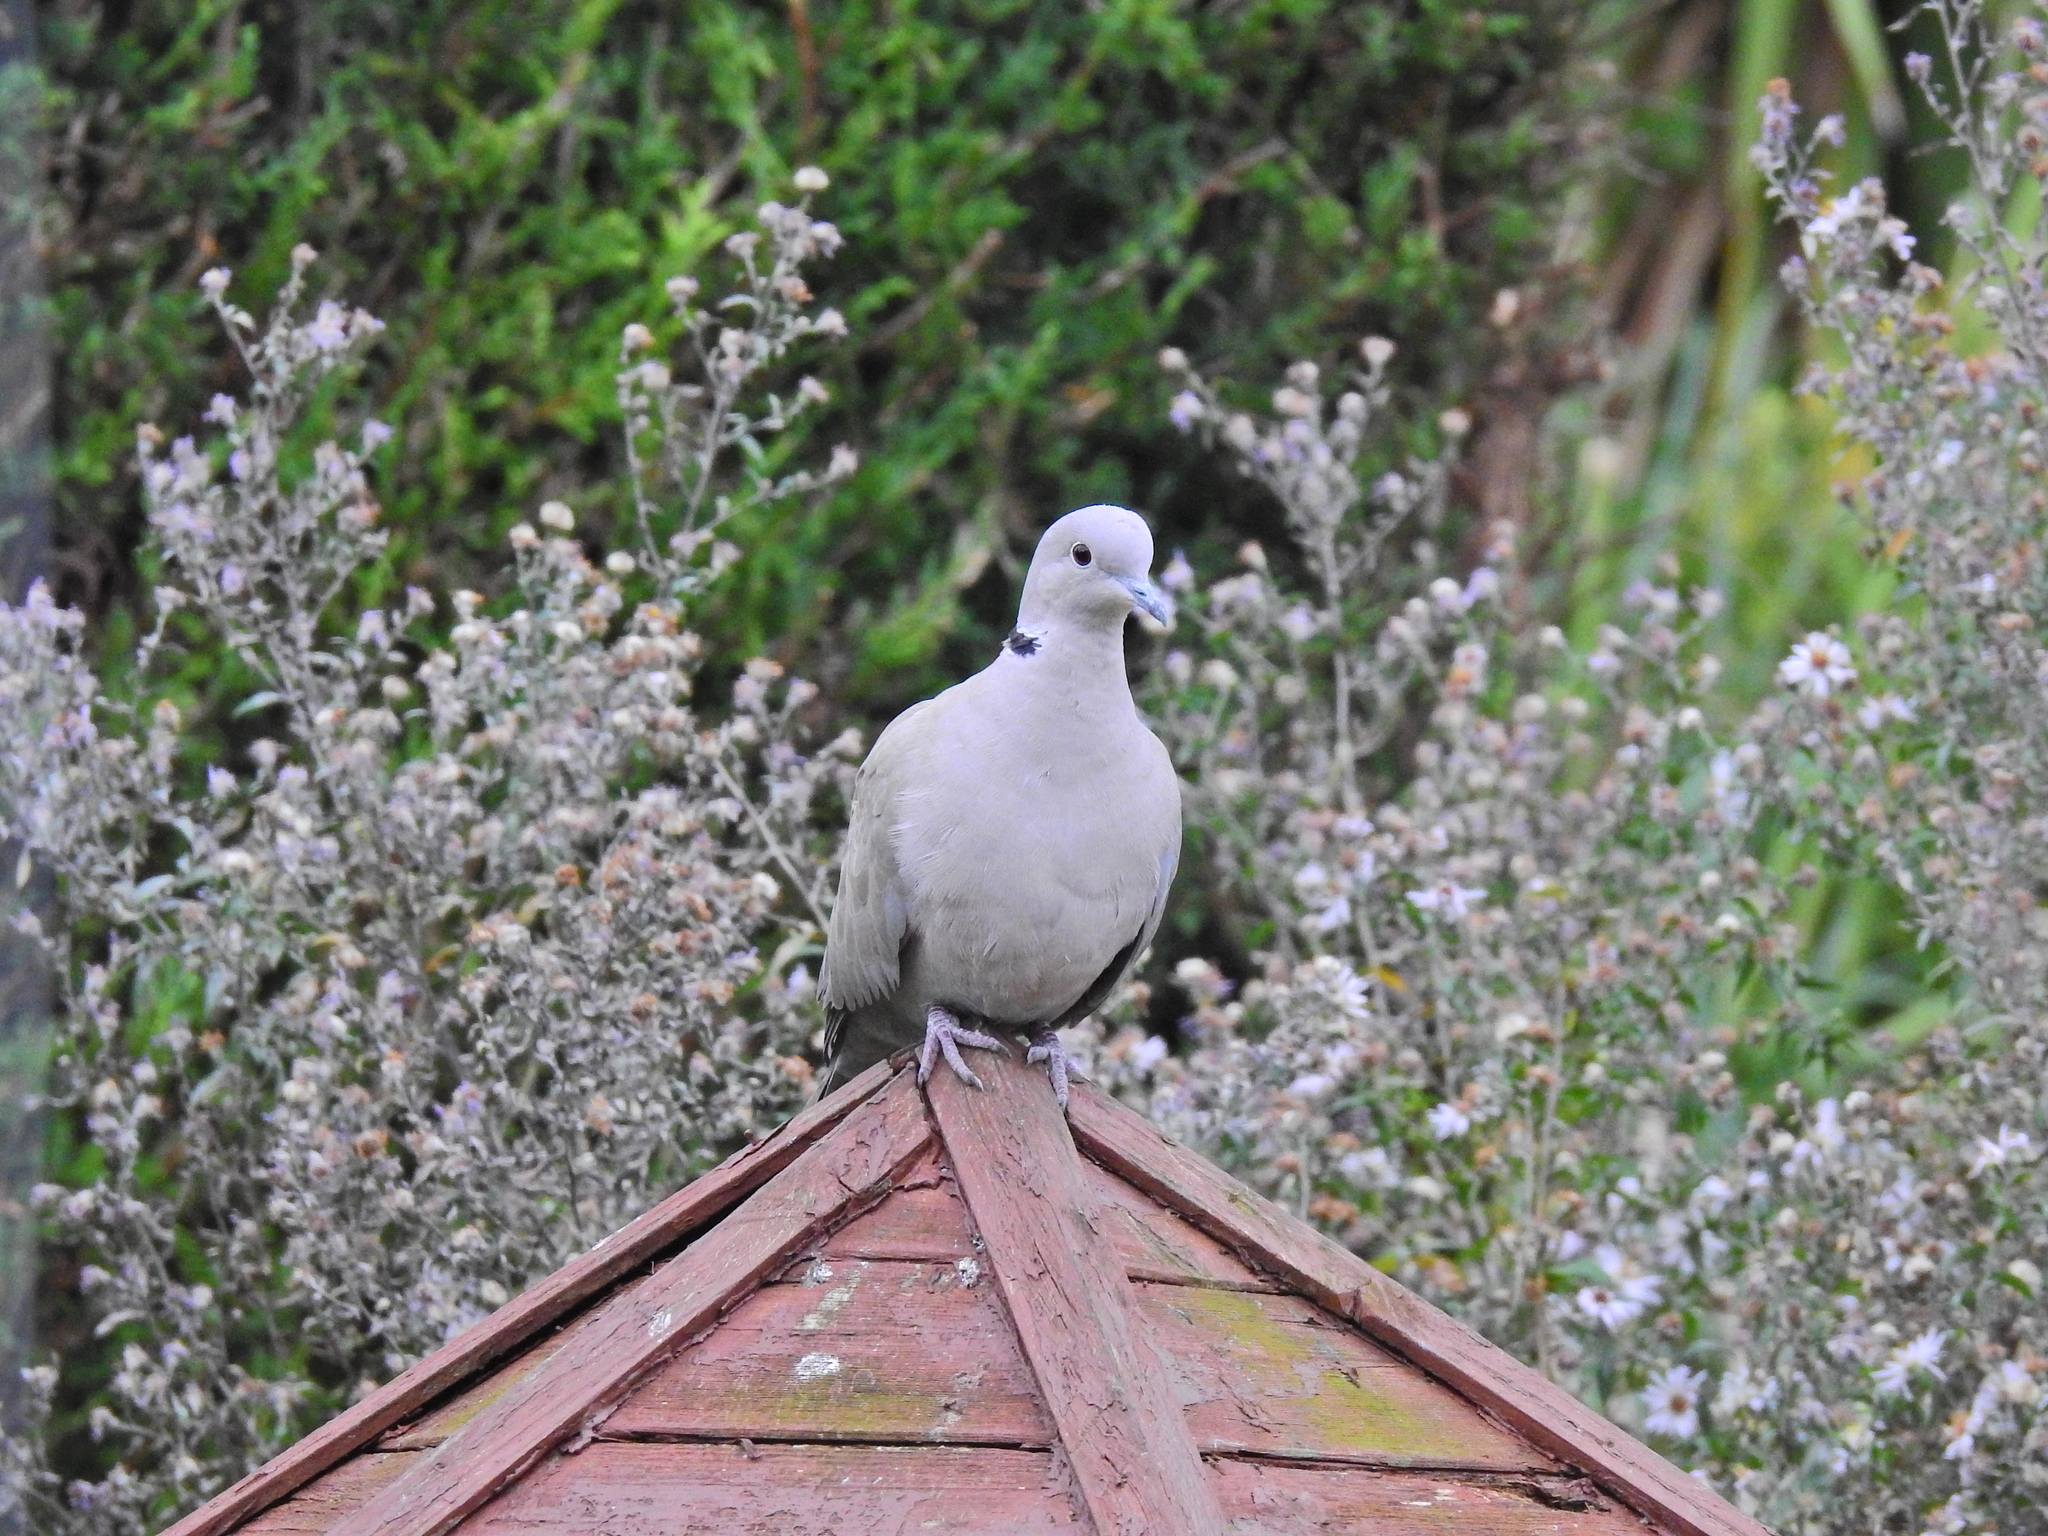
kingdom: Animalia
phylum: Chordata
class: Aves
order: Columbiformes
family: Columbidae
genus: Streptopelia
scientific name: Streptopelia decaocto
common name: Eurasian collared dove
